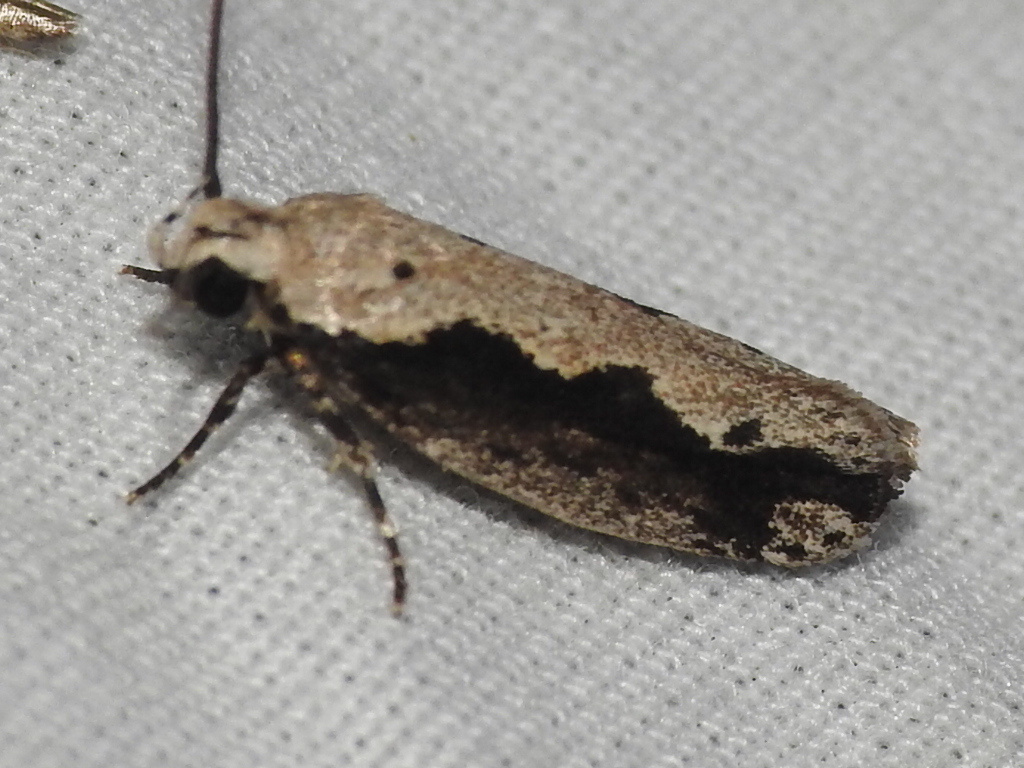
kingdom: Animalia
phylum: Arthropoda
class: Insecta
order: Lepidoptera
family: Ethmiidae
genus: Ethmia
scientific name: Ethmia semiombra
